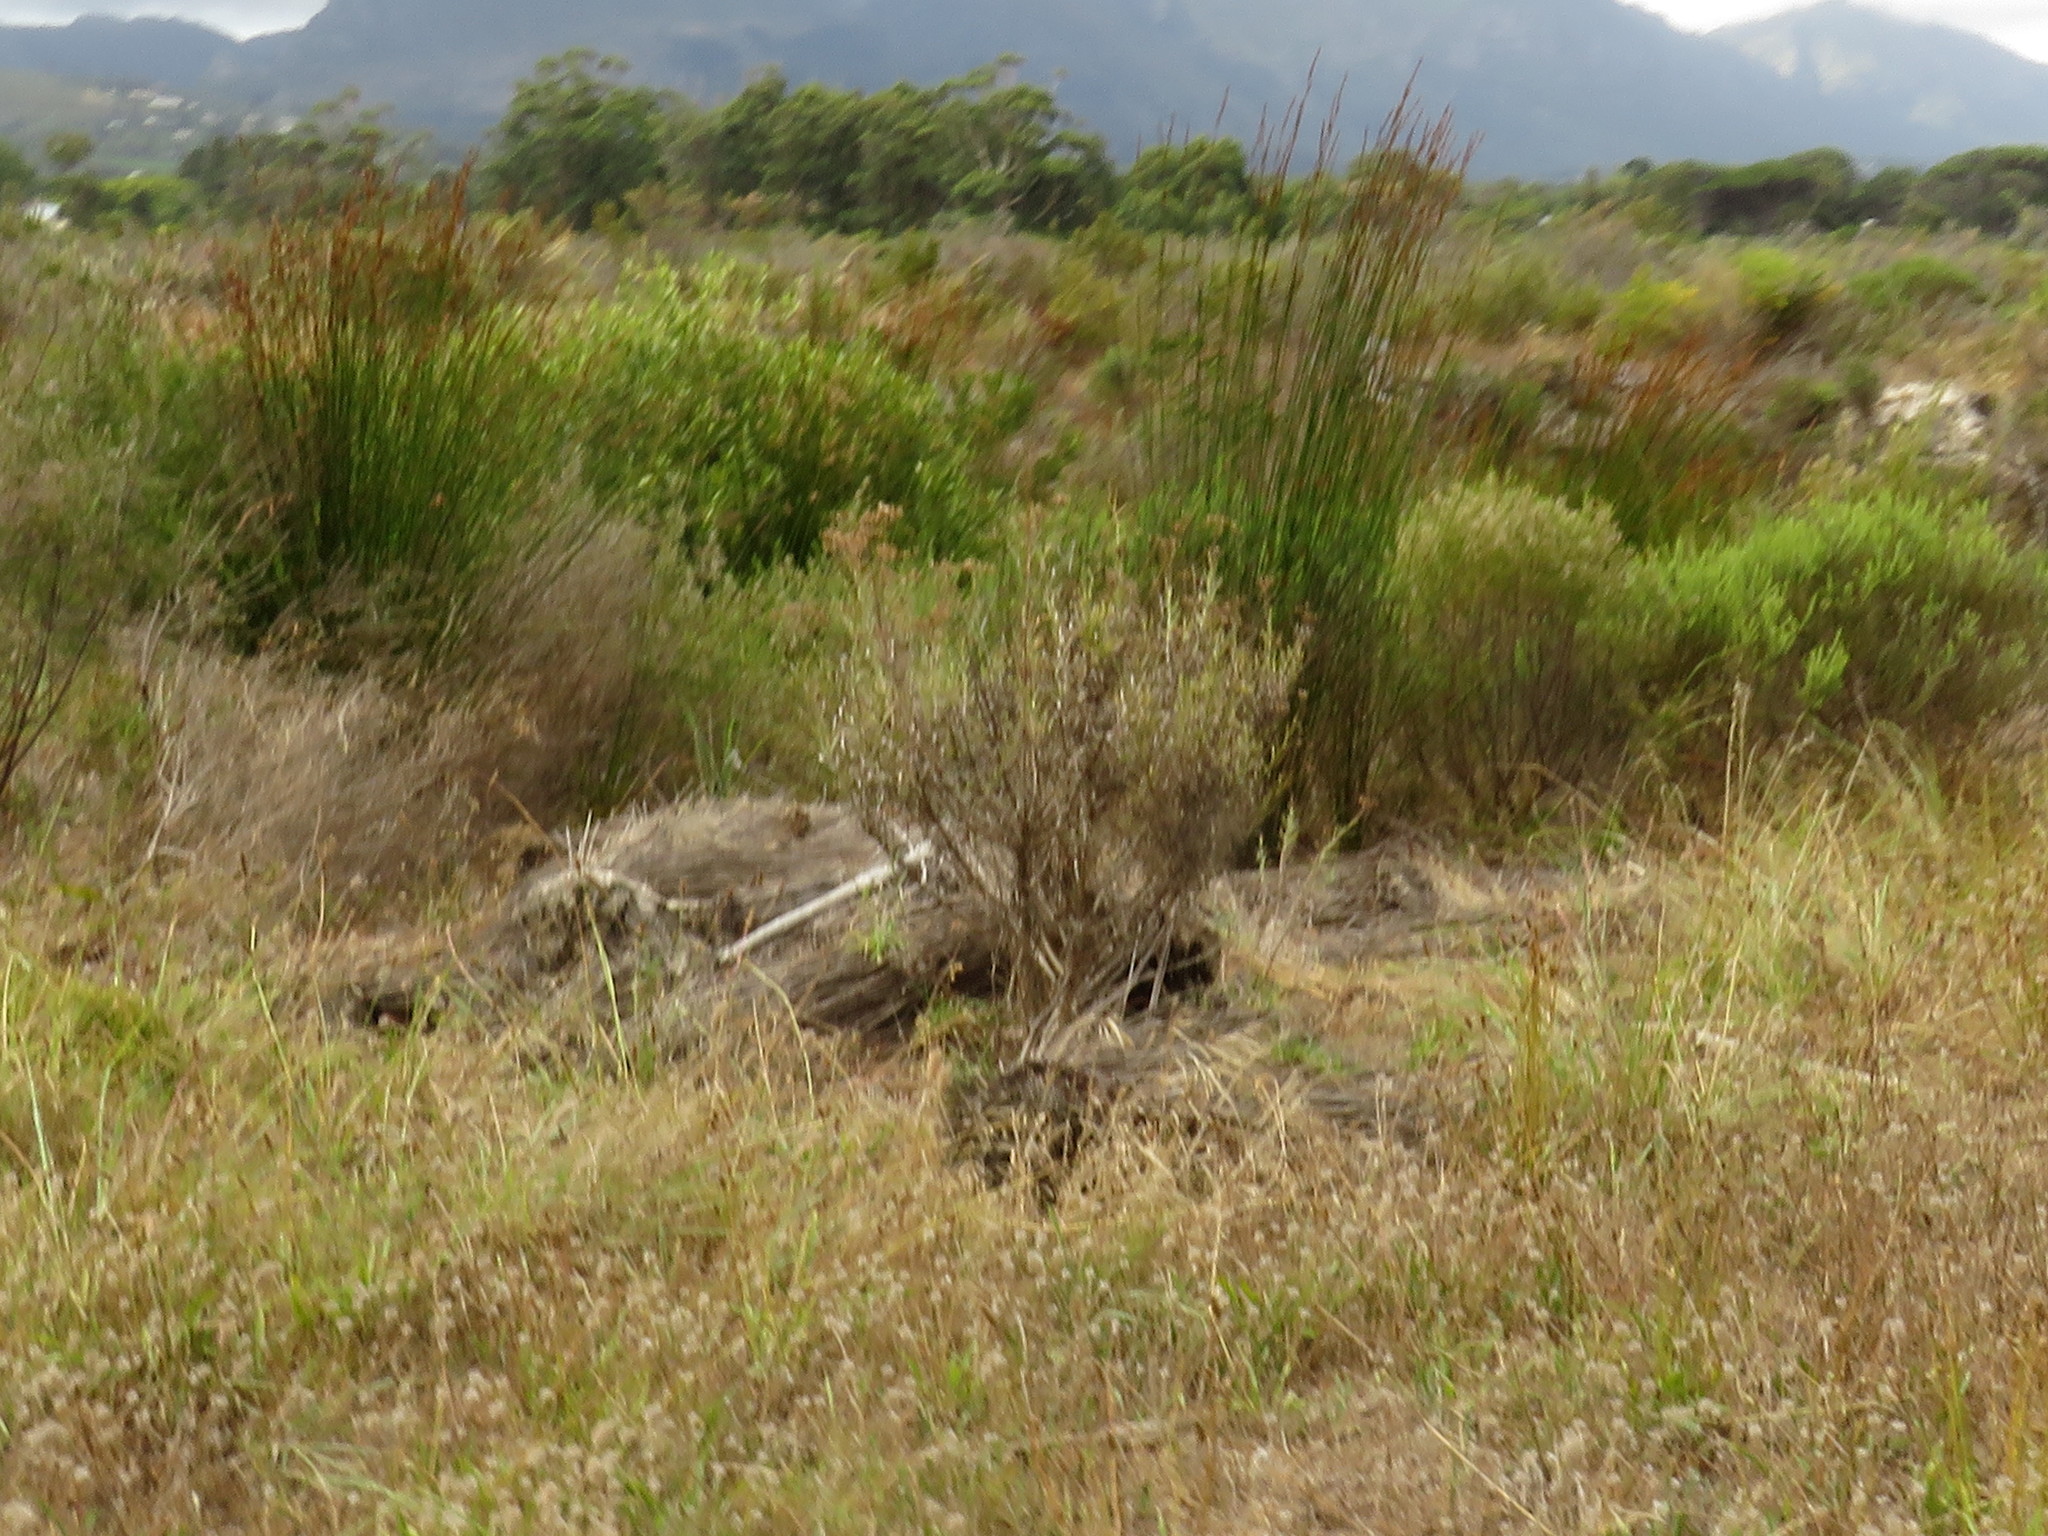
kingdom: Plantae
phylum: Tracheophyta
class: Liliopsida
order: Poales
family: Restionaceae
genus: Thamnochortus
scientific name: Thamnochortus insignis
